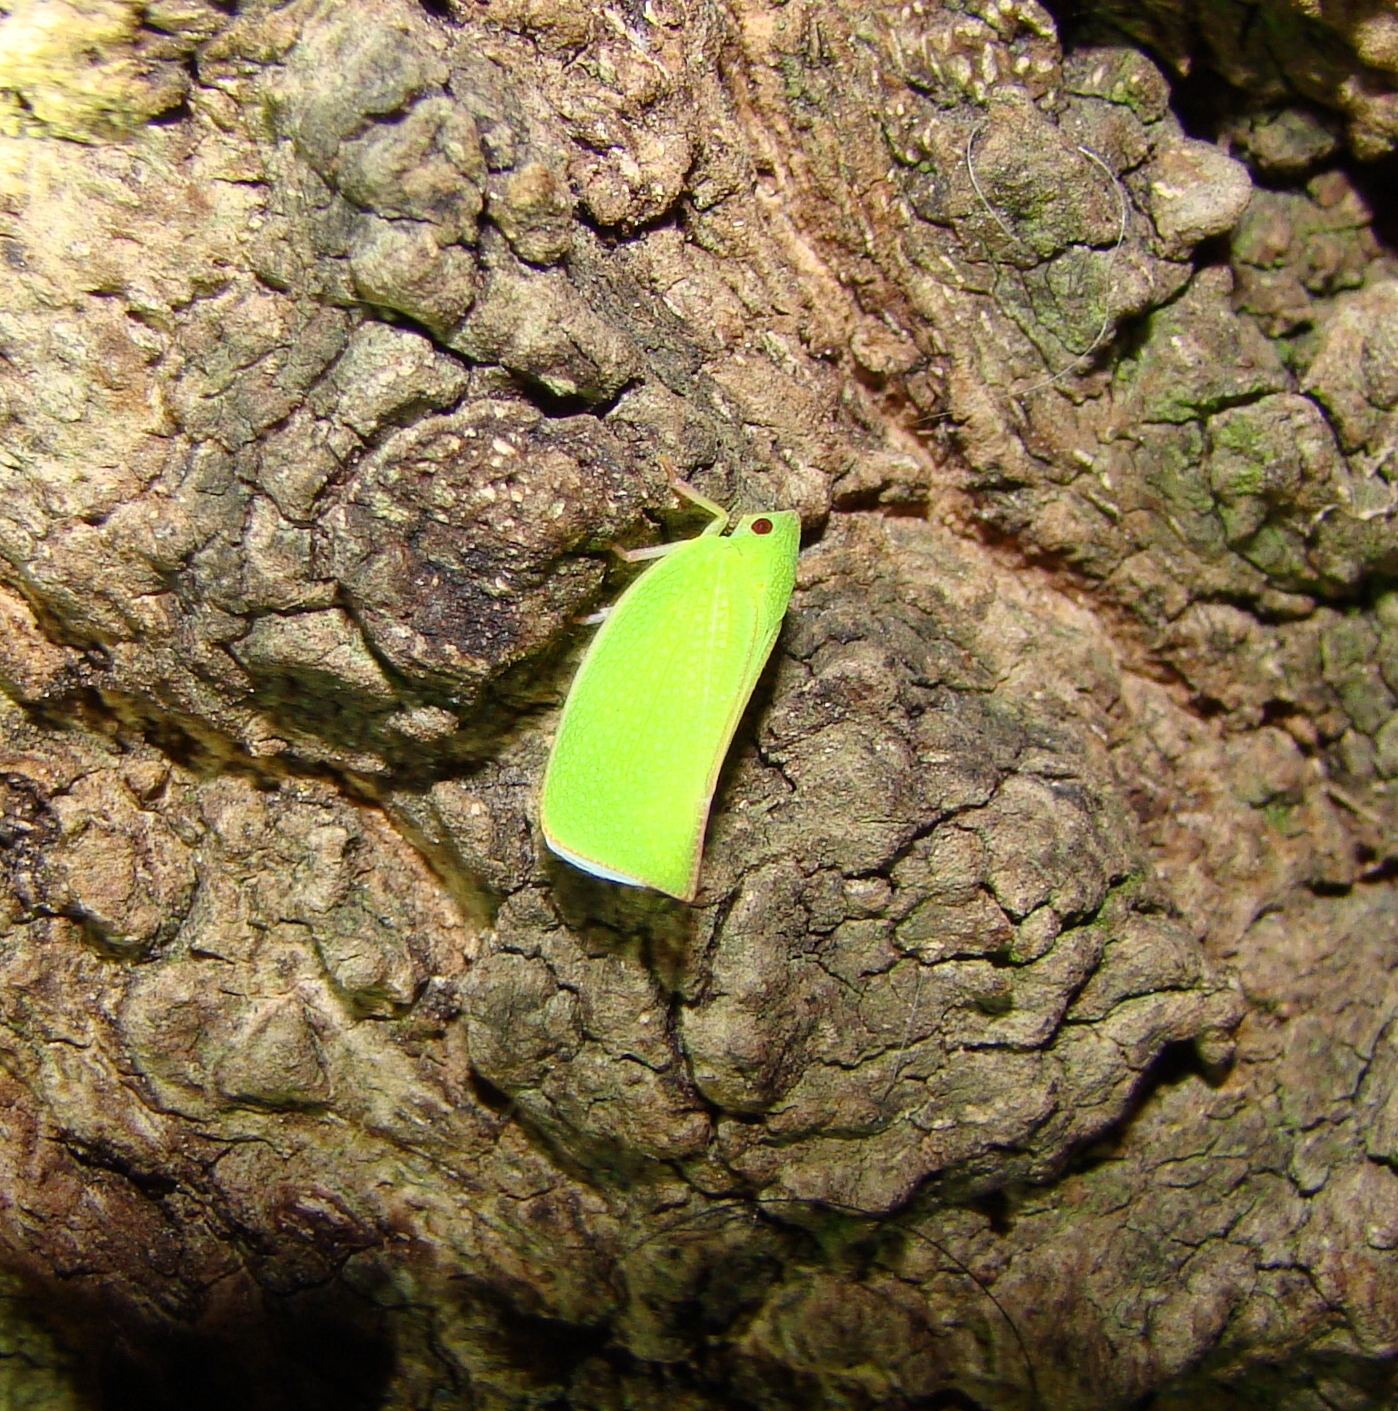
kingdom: Animalia
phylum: Arthropoda
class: Insecta
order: Hemiptera
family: Flatidae
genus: Siphanta
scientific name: Siphanta acuta
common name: Torpedo bug
